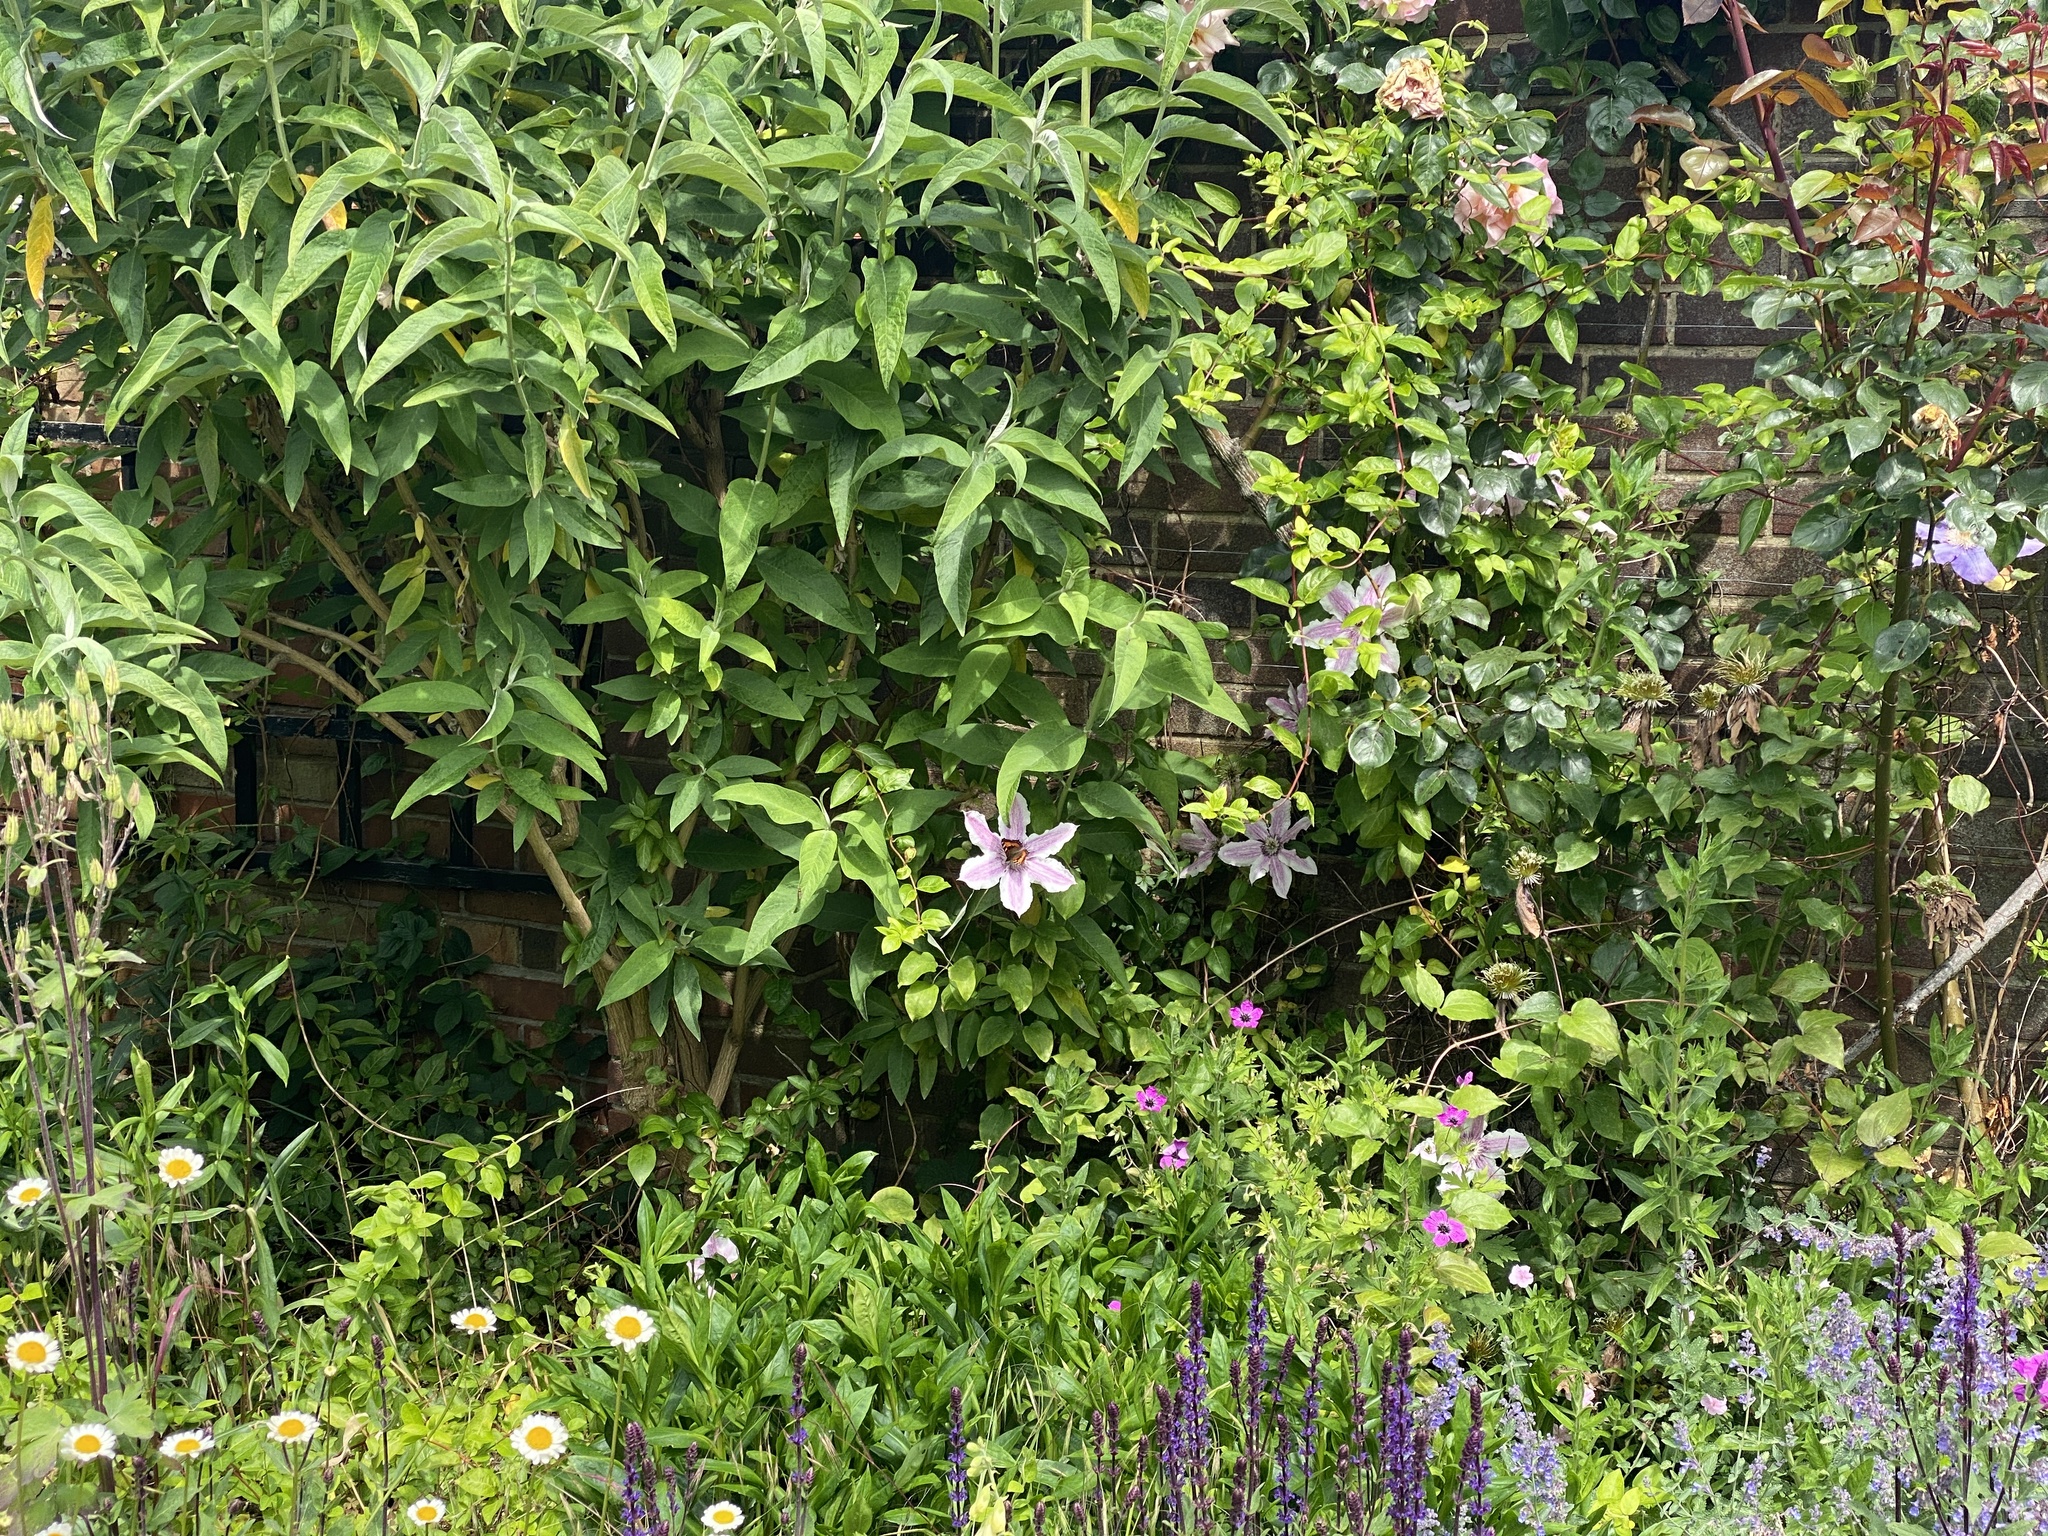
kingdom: Animalia
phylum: Arthropoda
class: Insecta
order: Lepidoptera
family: Nymphalidae
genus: Aglais
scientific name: Aglais urticae
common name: Small tortoiseshell
